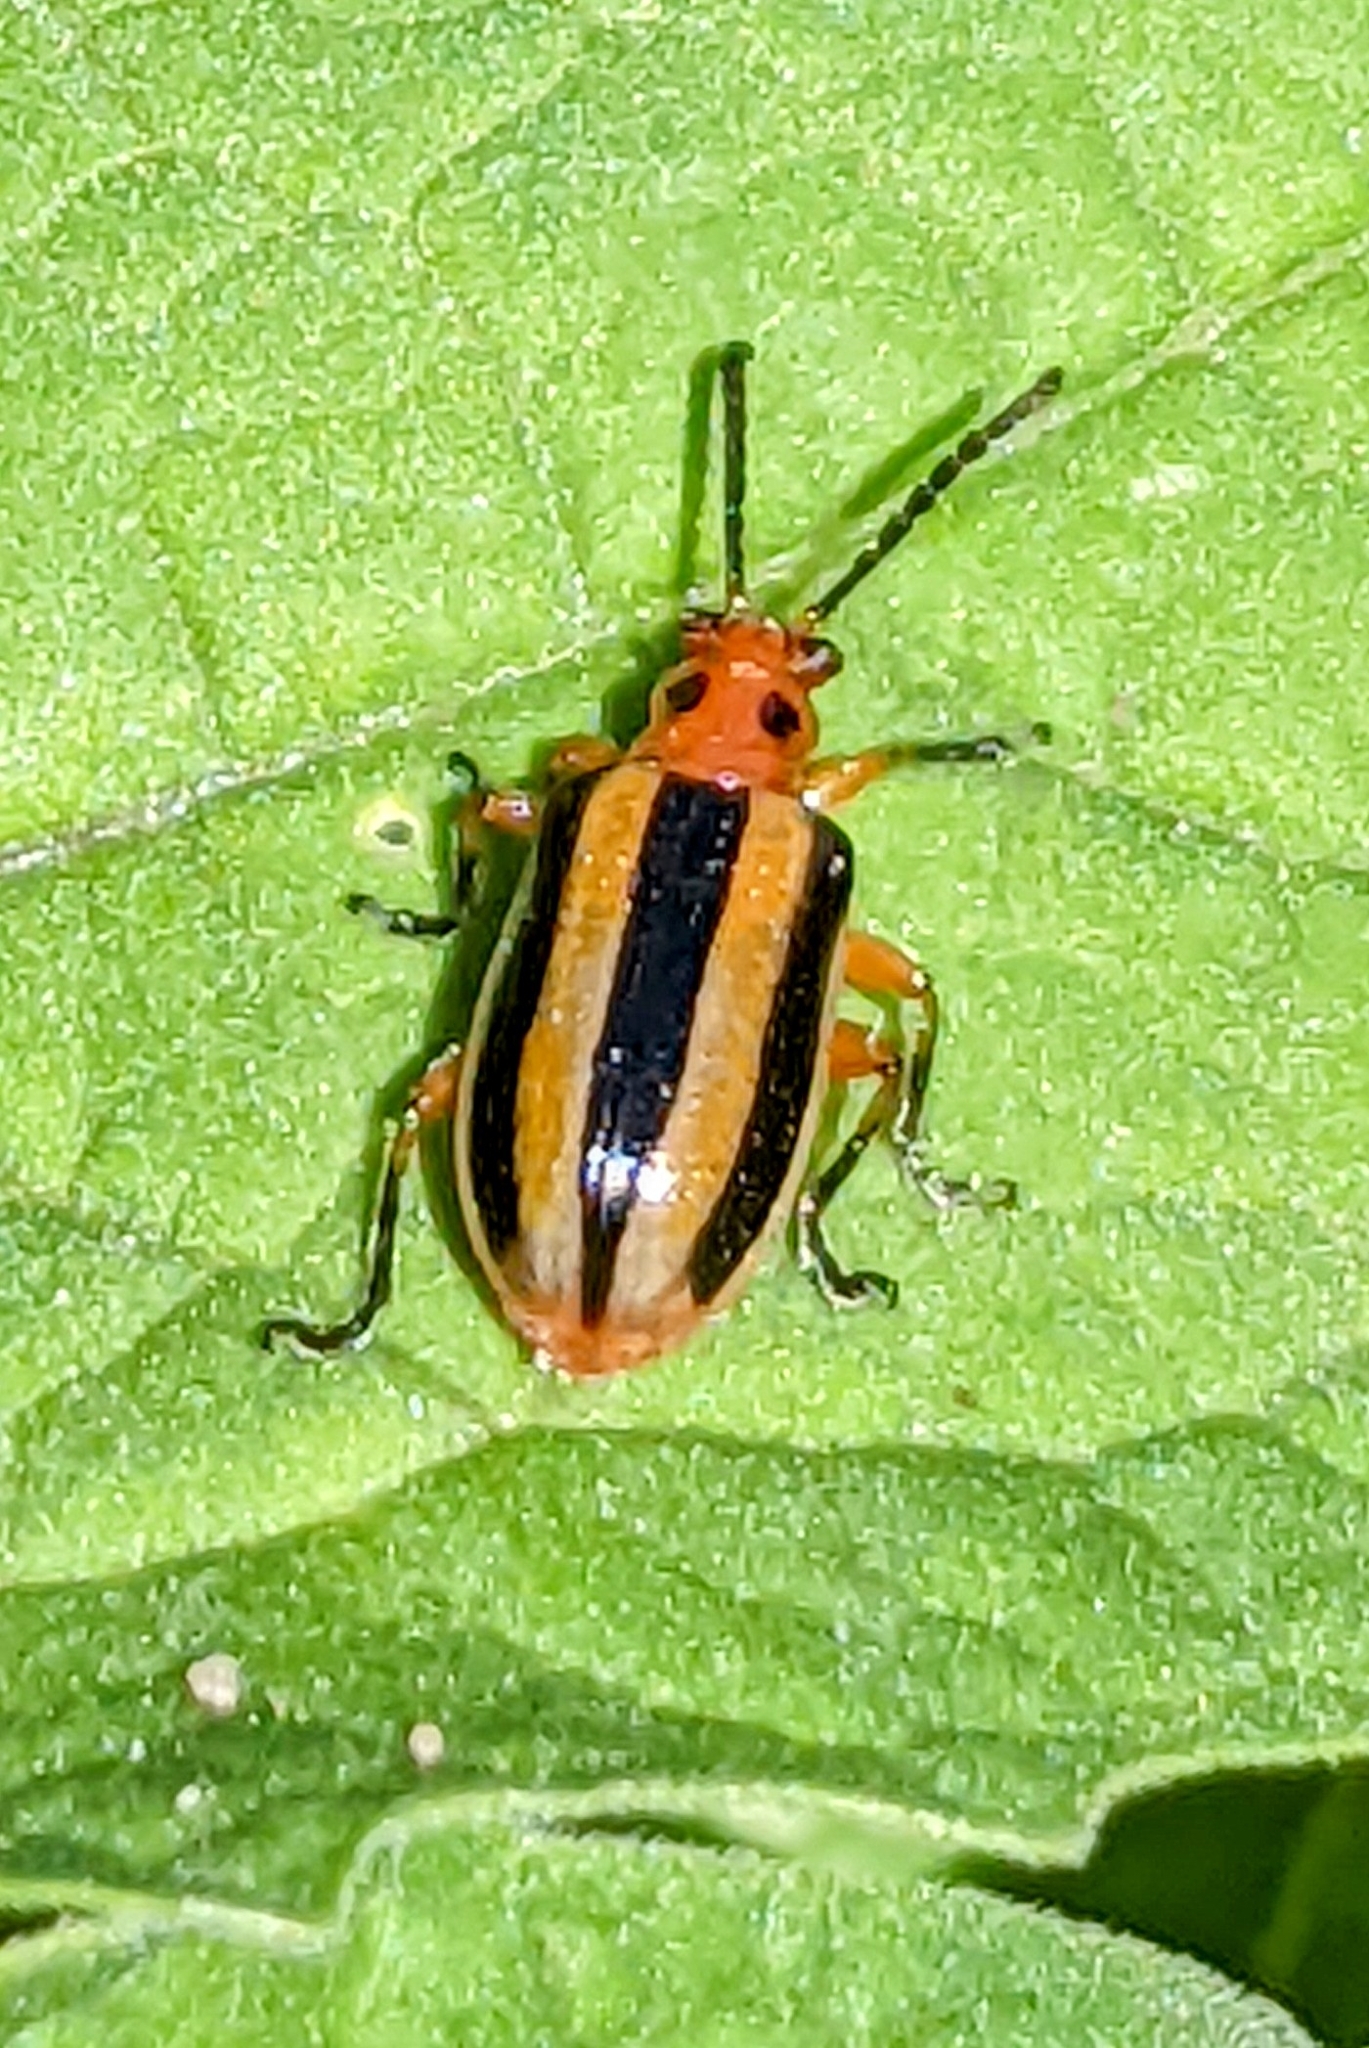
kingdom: Animalia
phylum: Arthropoda
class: Insecta
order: Coleoptera
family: Chrysomelidae
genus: Lema
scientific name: Lema daturaphila
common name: Leaf beetle
